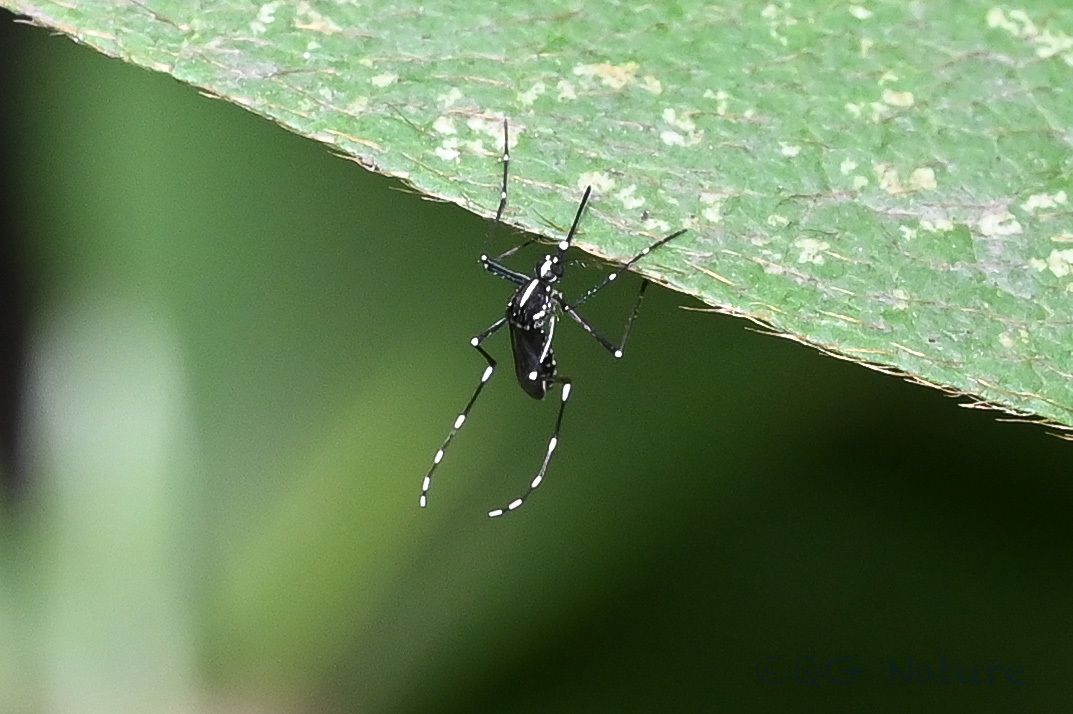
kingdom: Animalia
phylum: Arthropoda
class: Insecta
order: Diptera
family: Culicidae
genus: Aedes
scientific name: Aedes albopictus
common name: Tiger mosquito
